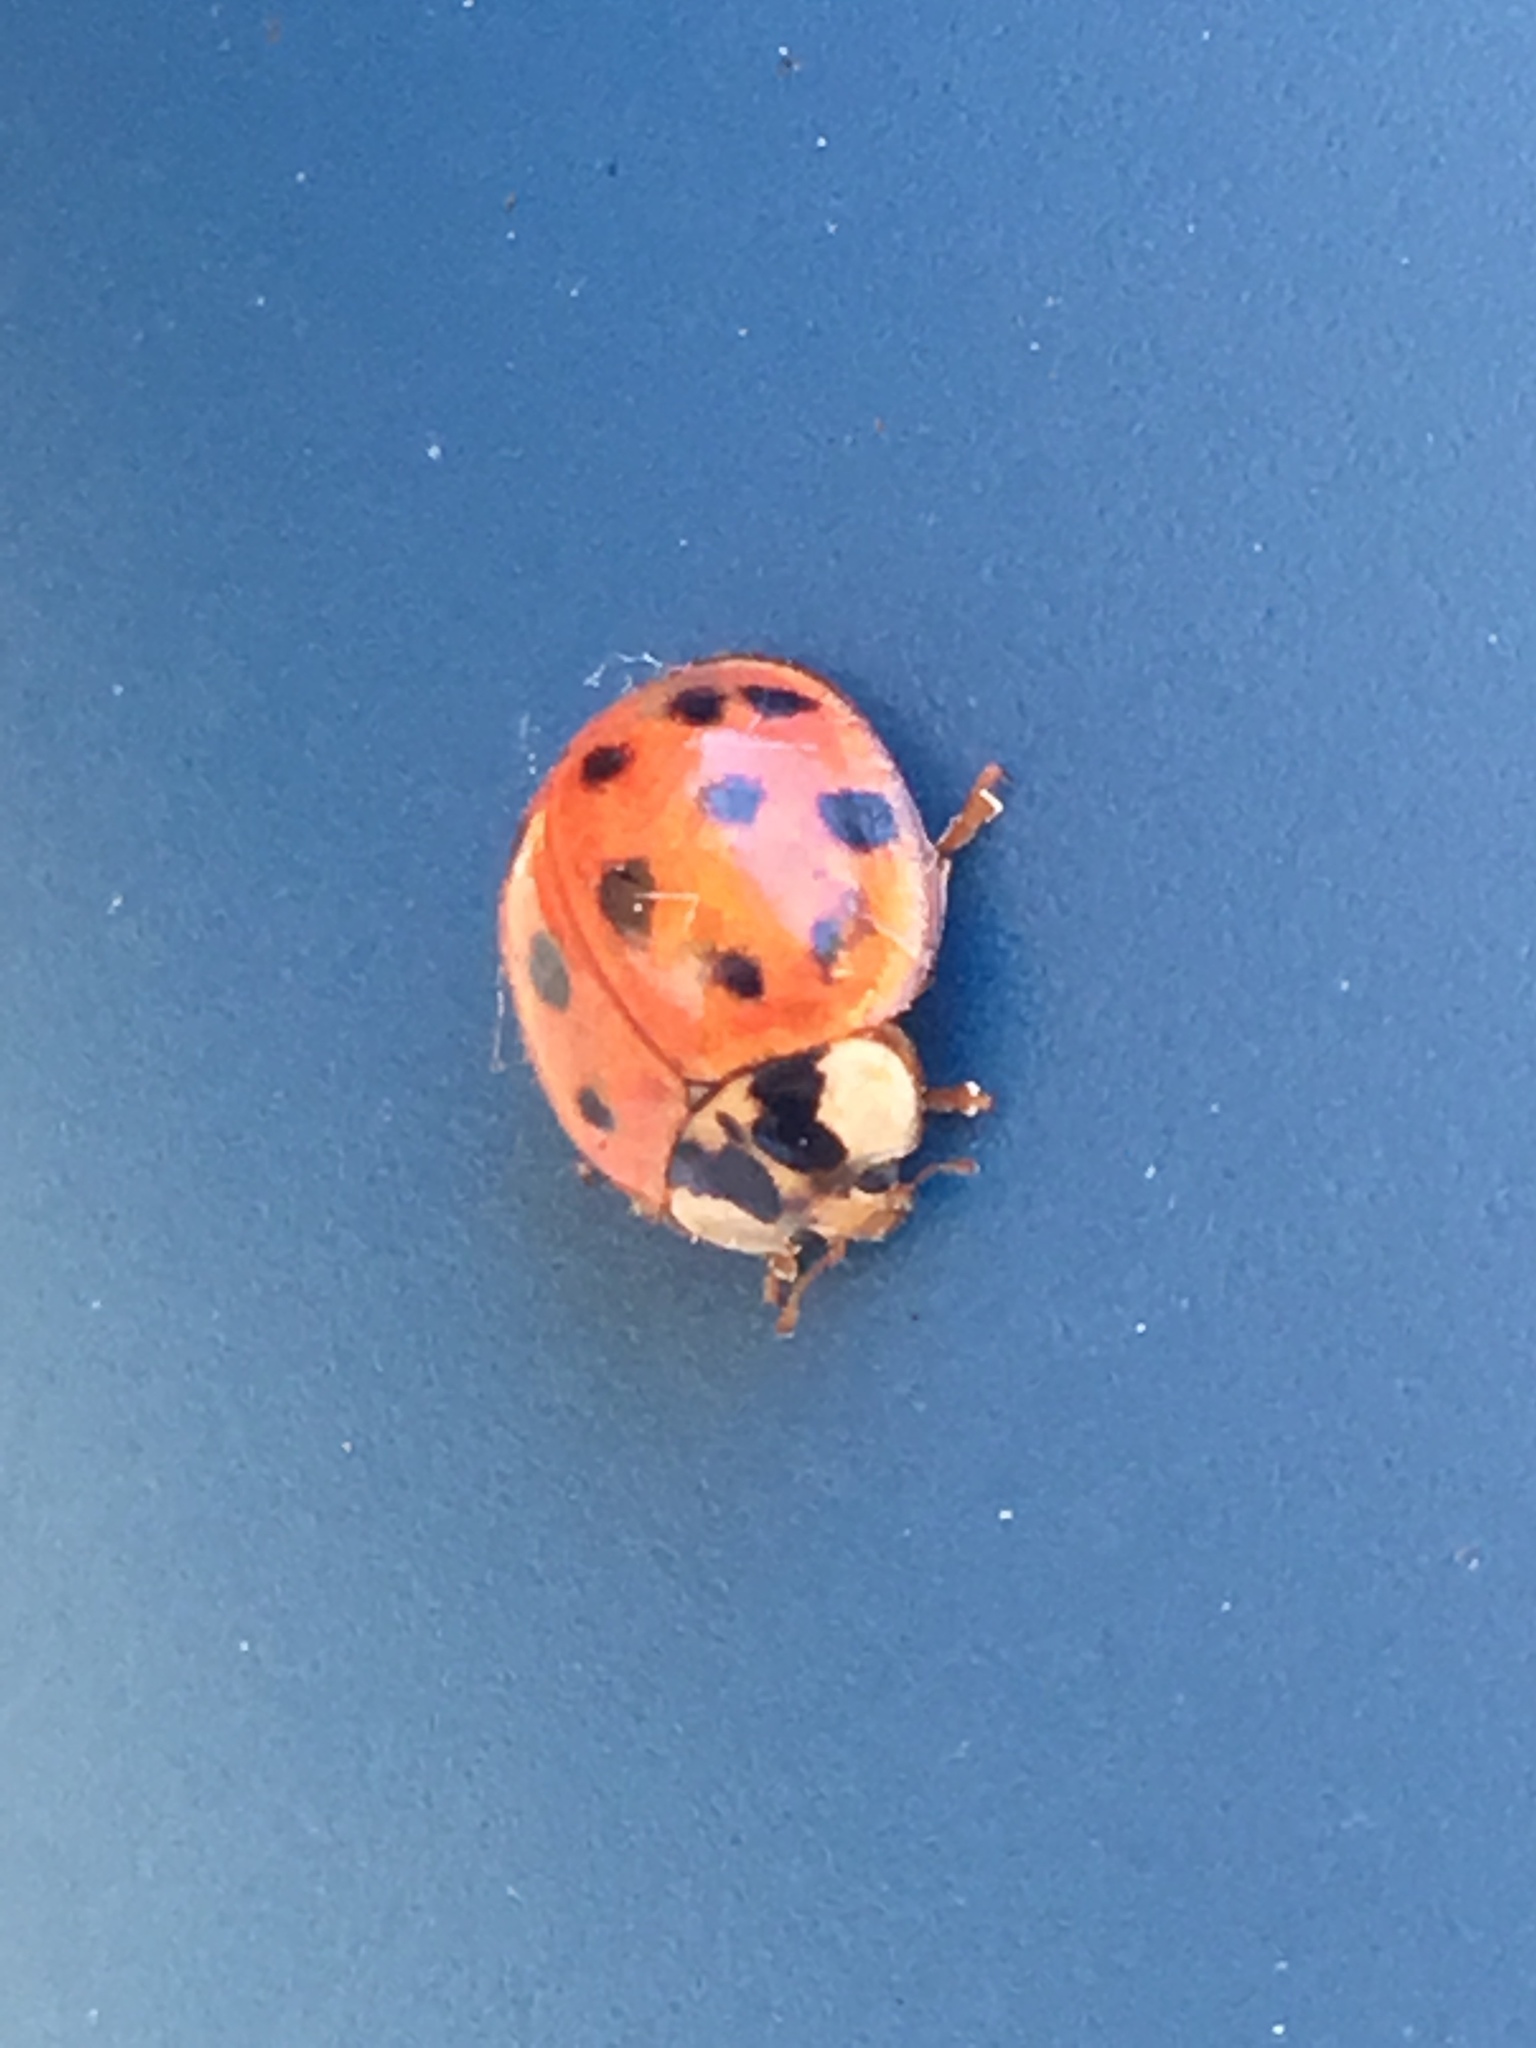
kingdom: Animalia
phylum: Arthropoda
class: Insecta
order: Coleoptera
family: Coccinellidae
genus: Harmonia
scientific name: Harmonia axyridis
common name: Harlequin ladybird
